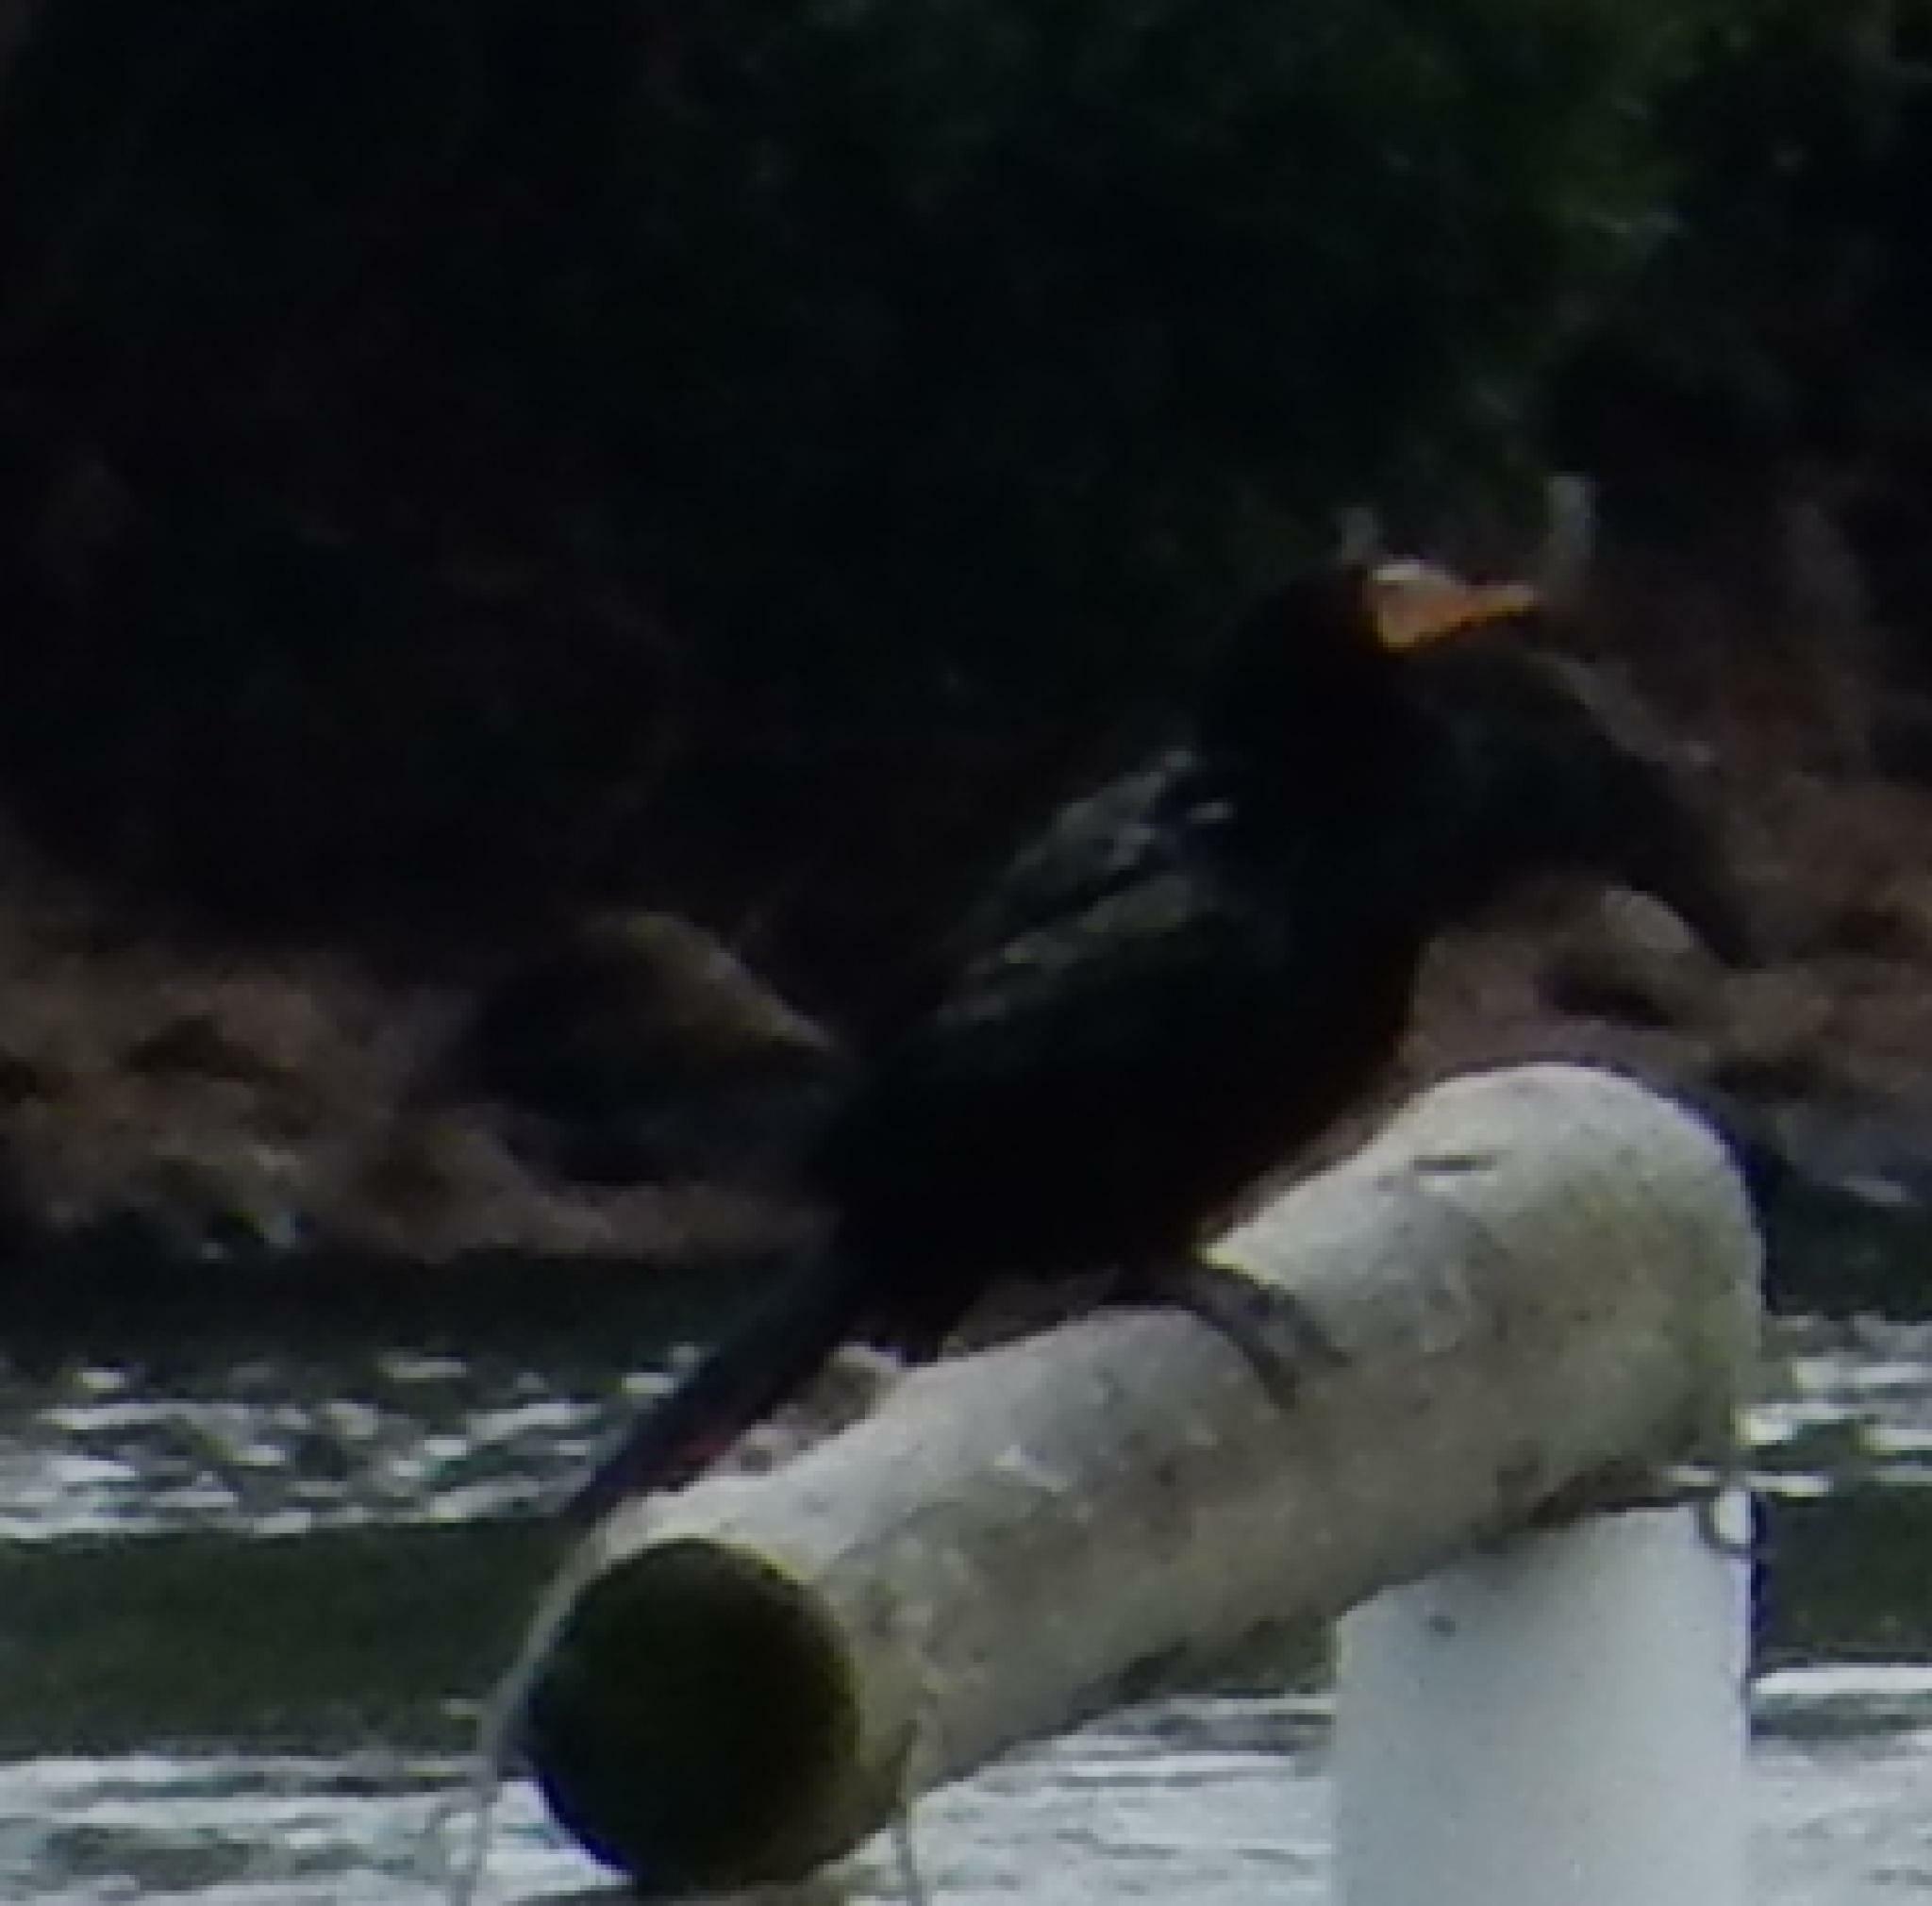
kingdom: Animalia
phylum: Chordata
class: Aves
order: Suliformes
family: Phalacrocoracidae
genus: Microcarbo
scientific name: Microcarbo africanus
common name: Long-tailed cormorant
